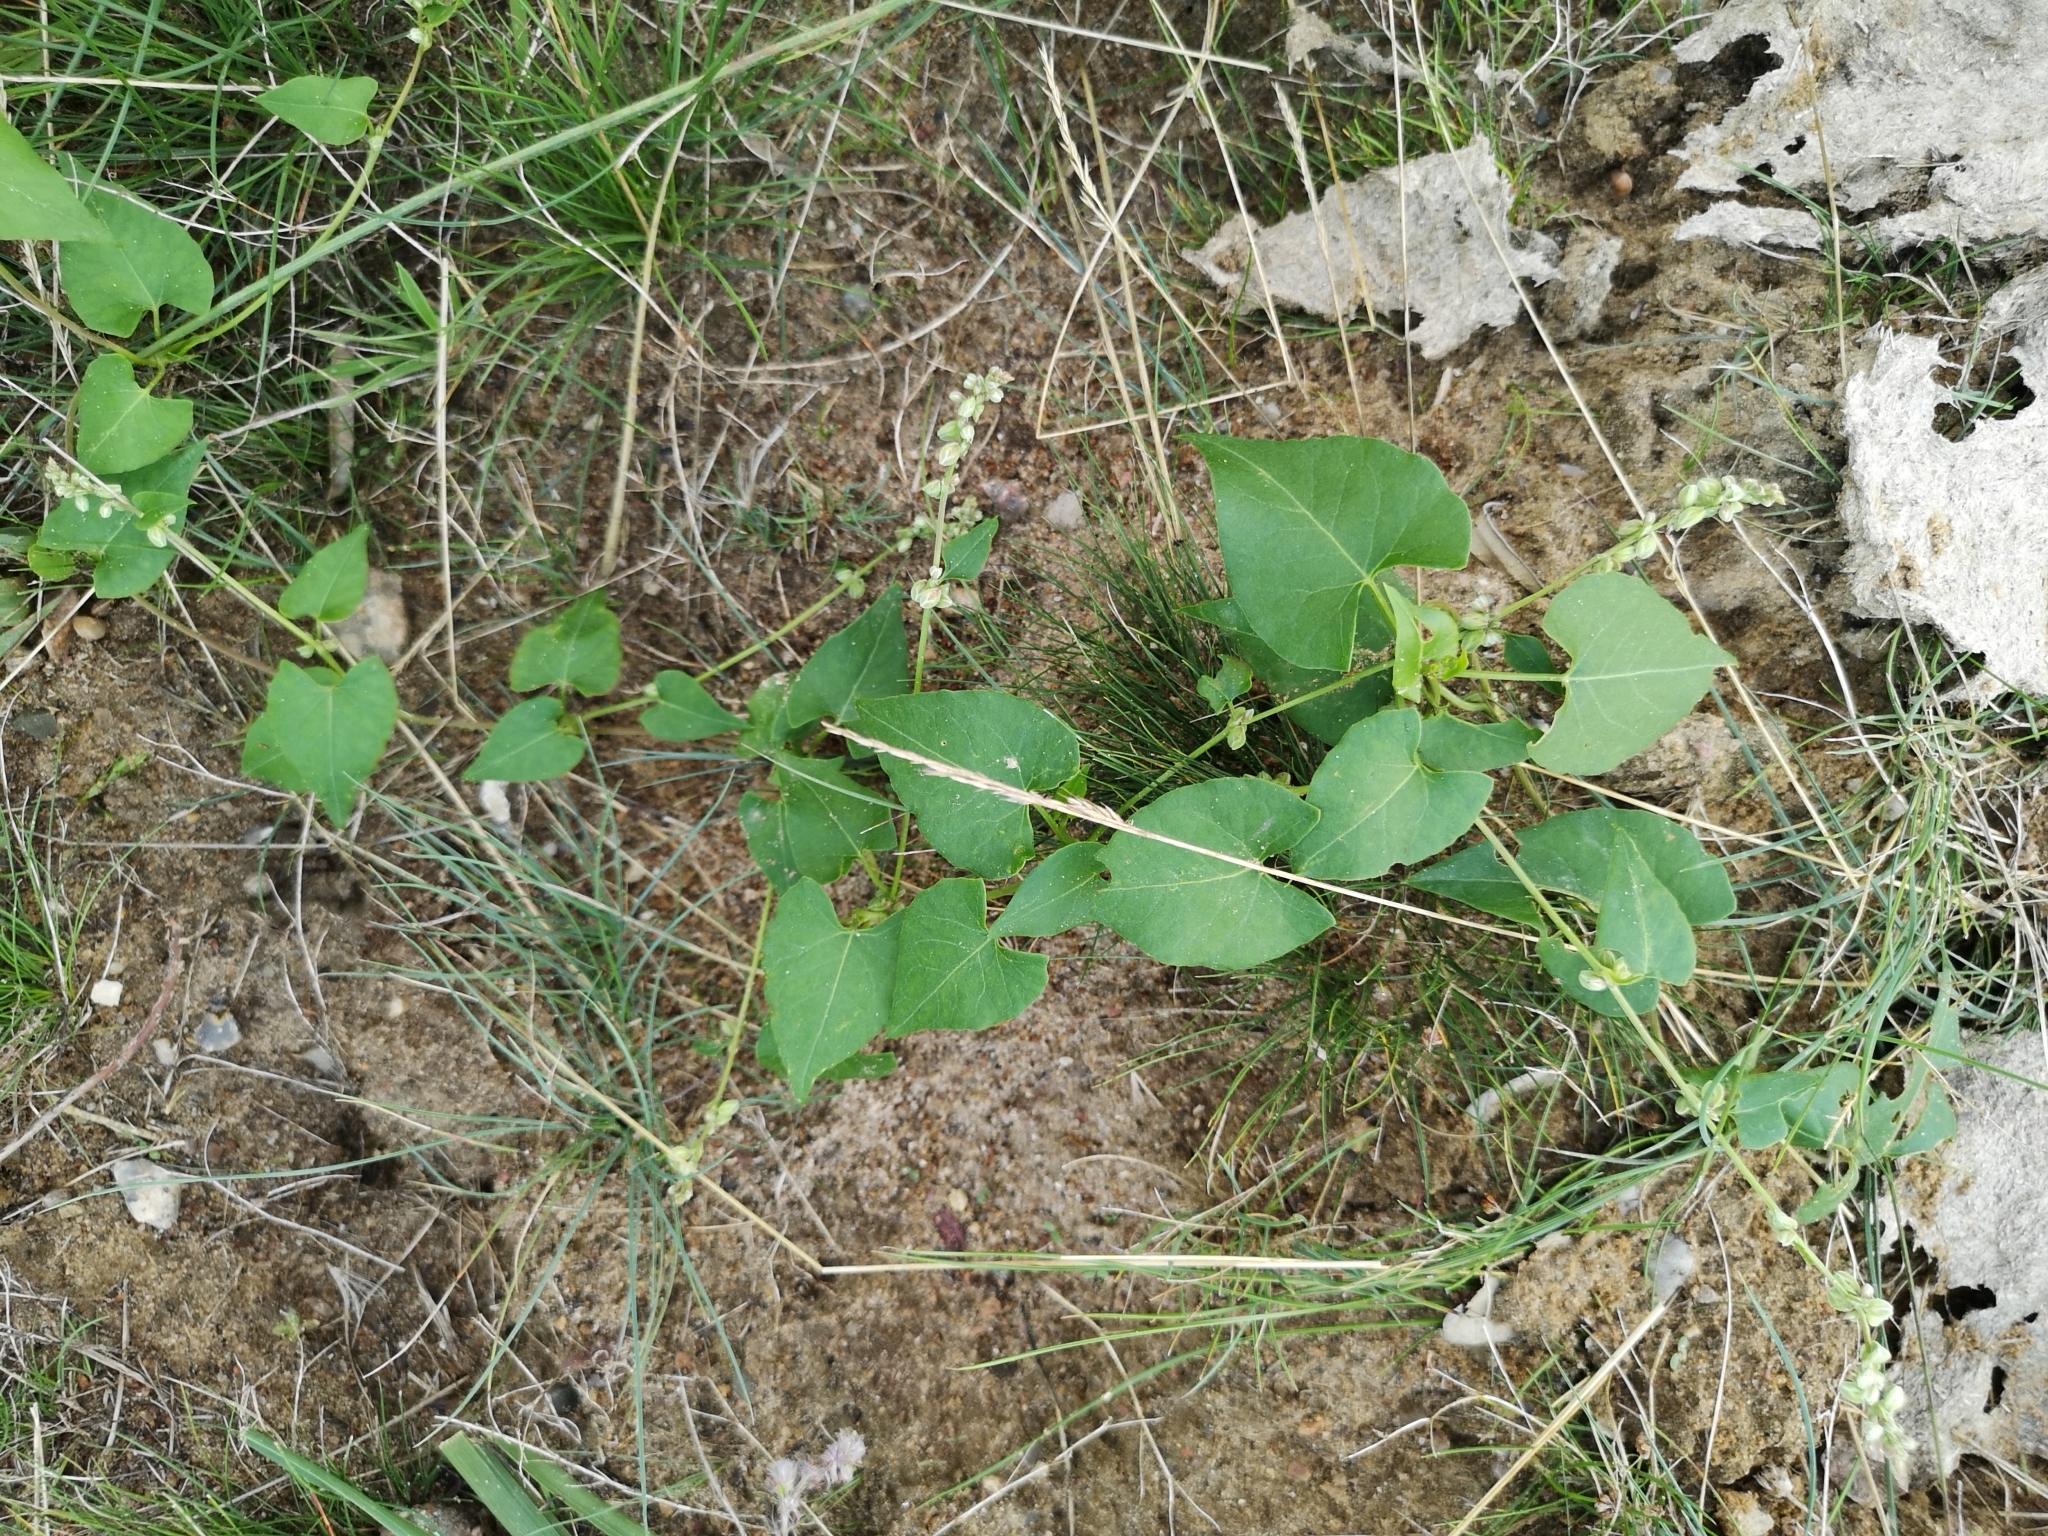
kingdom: Plantae
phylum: Tracheophyta
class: Magnoliopsida
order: Caryophyllales
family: Polygonaceae
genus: Fallopia
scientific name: Fallopia convolvulus
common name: Black bindweed
